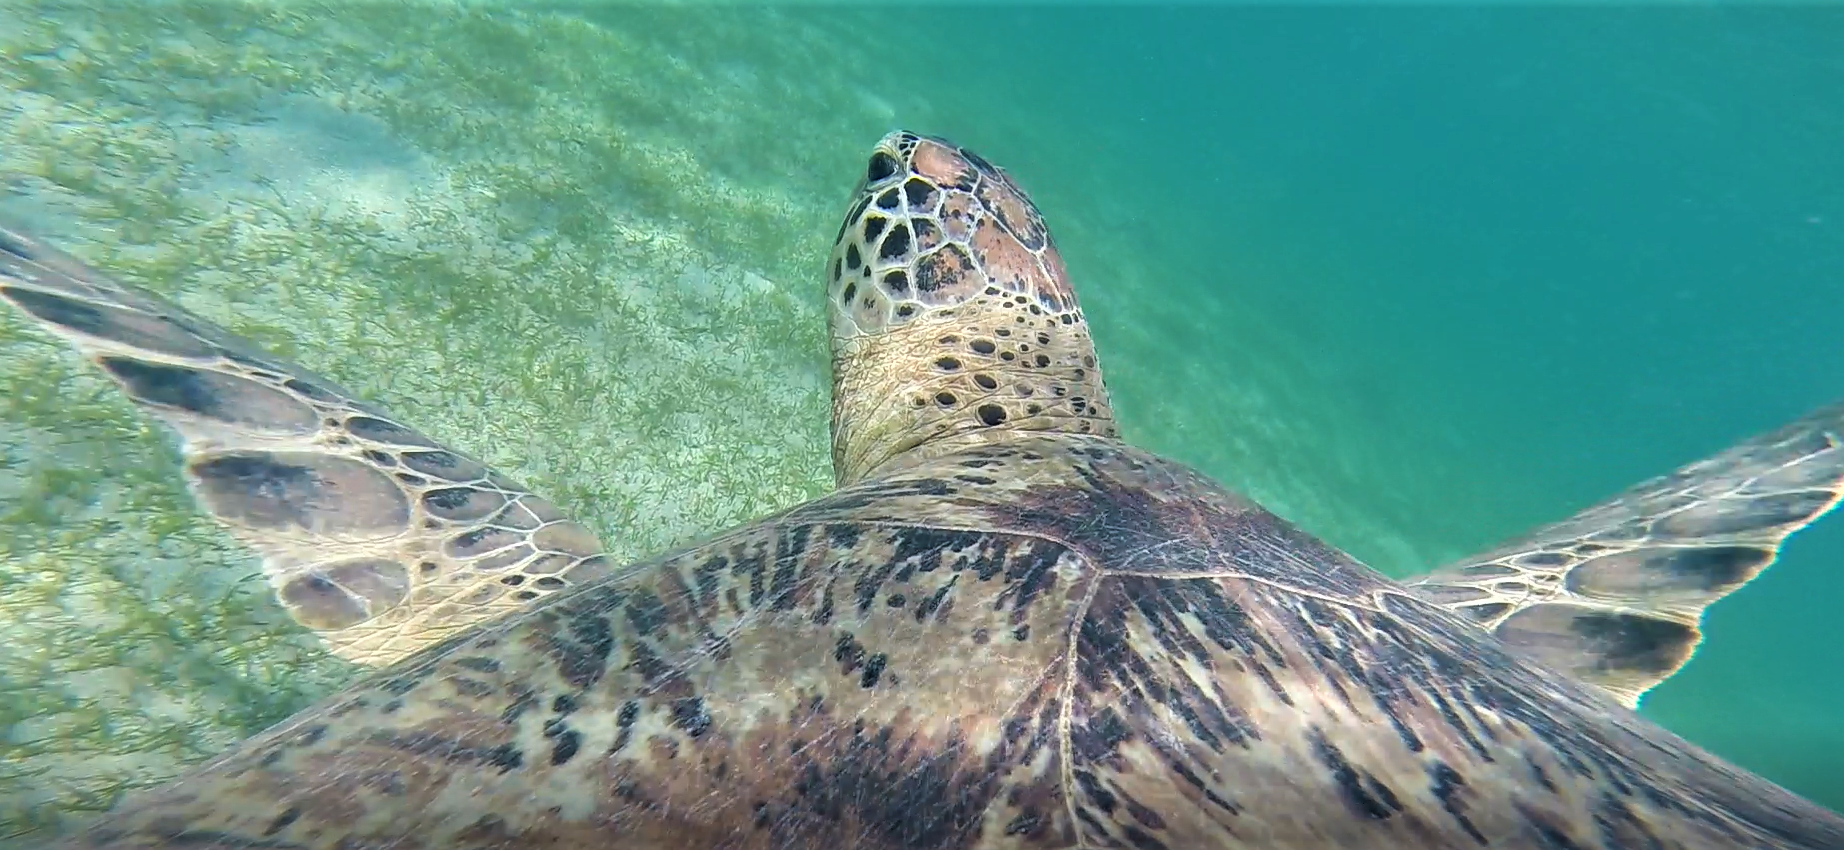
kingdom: Animalia
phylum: Chordata
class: Testudines
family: Cheloniidae
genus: Chelonia
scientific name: Chelonia mydas
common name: Green turtle
